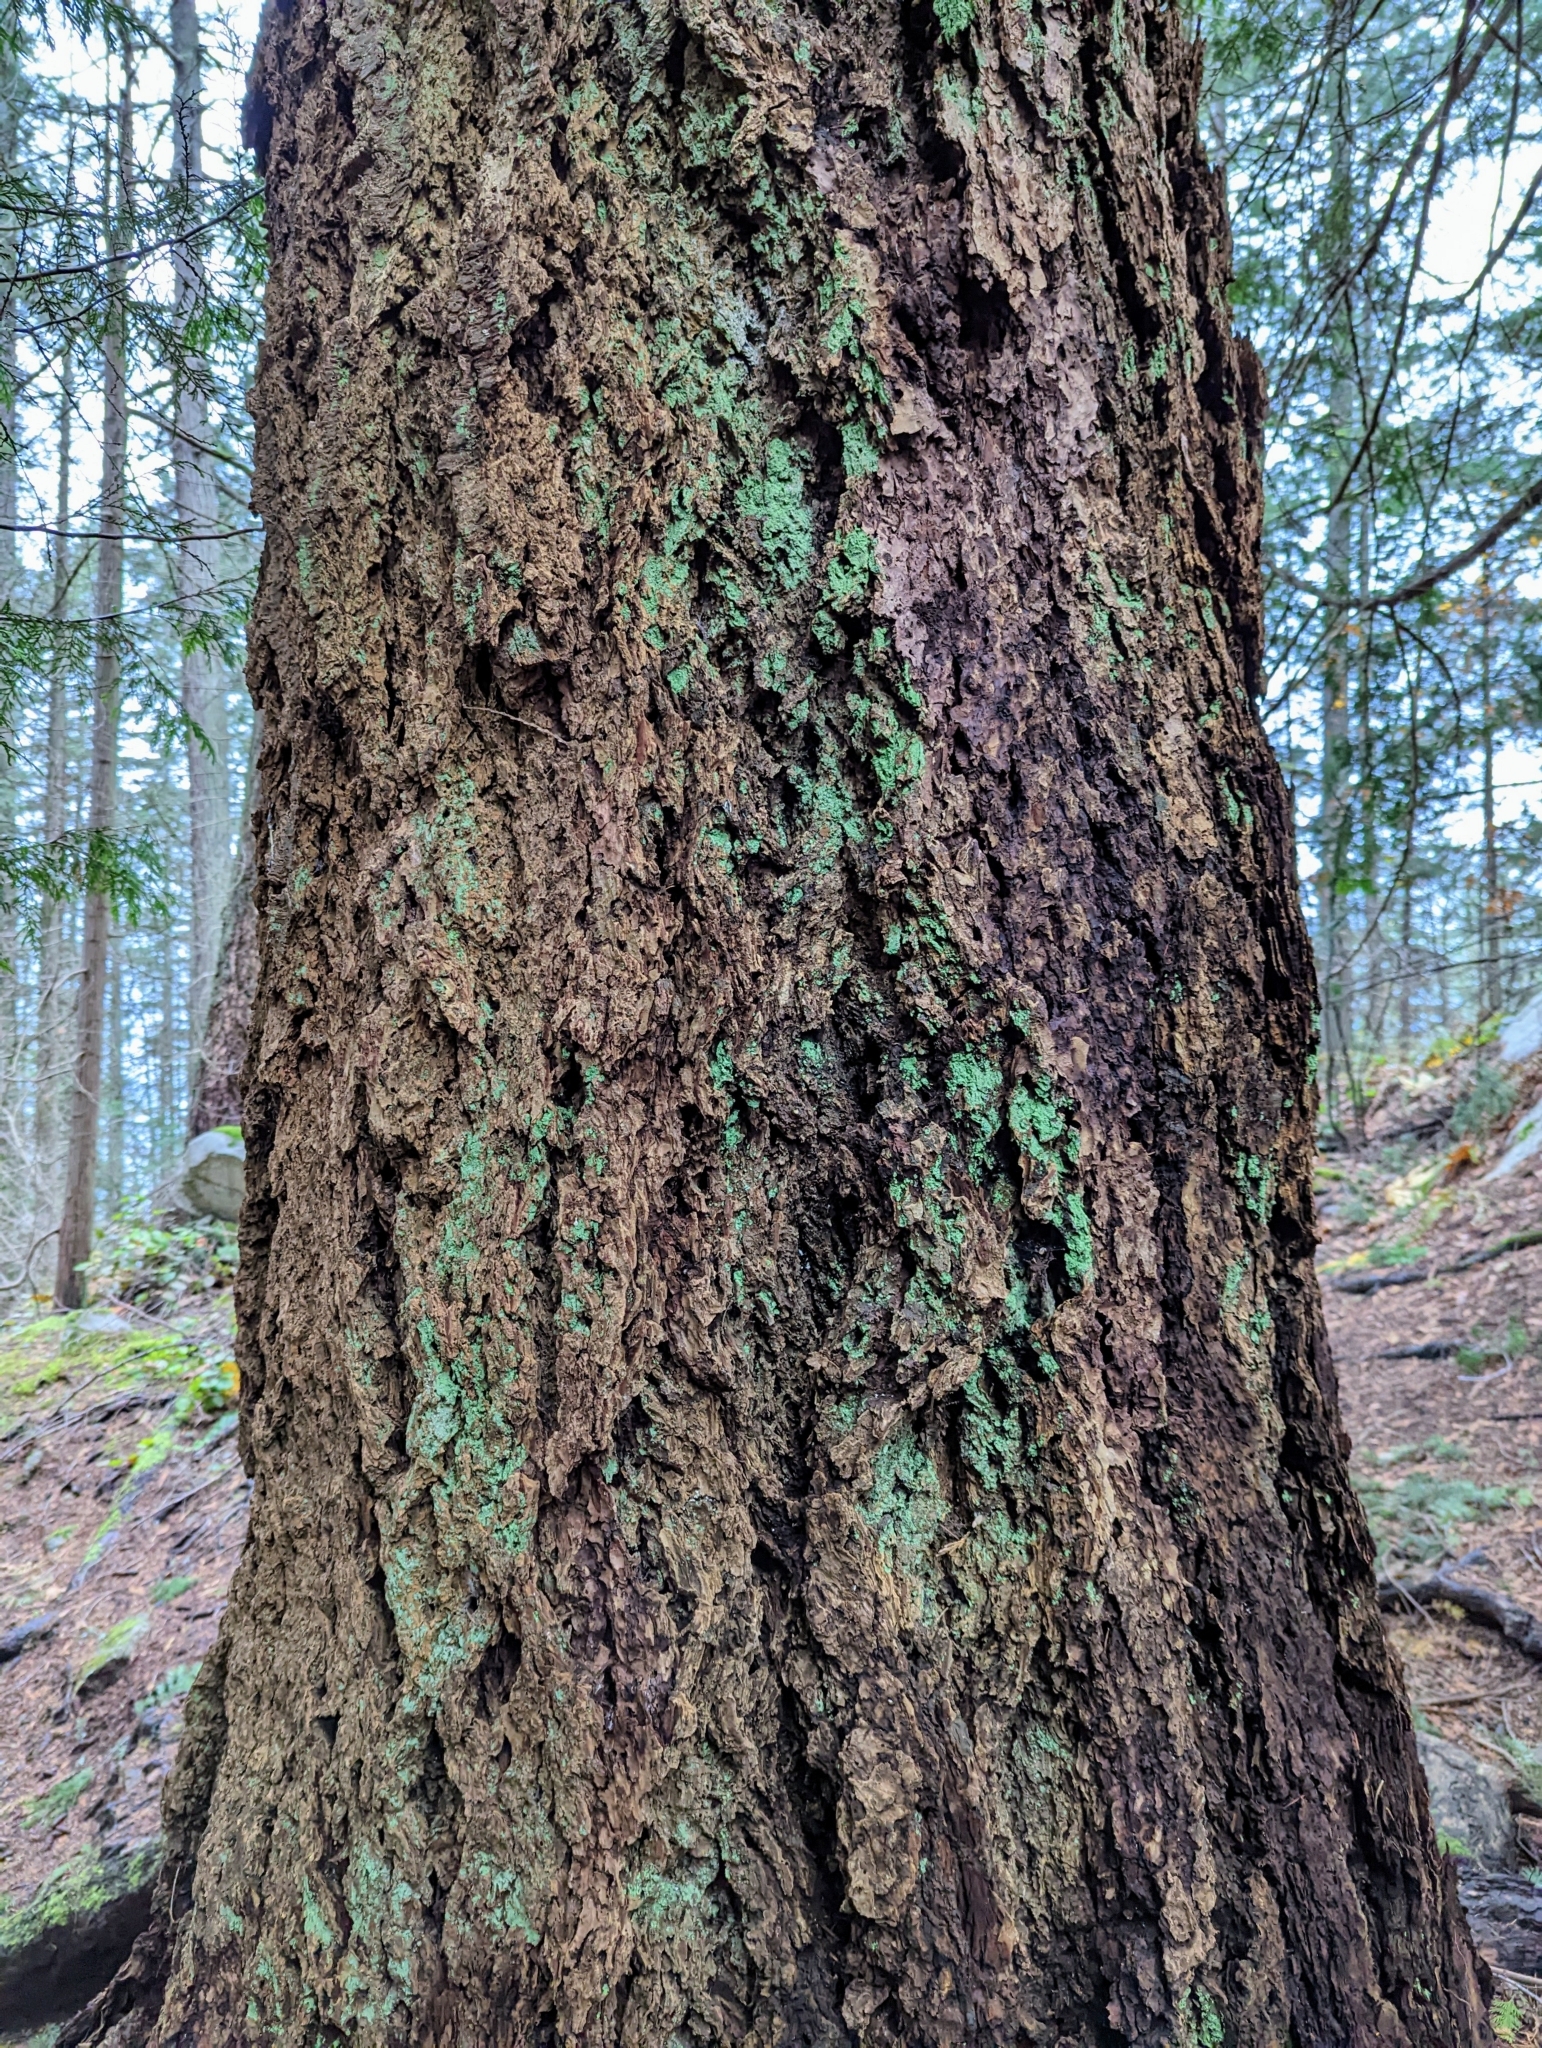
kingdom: Plantae
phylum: Tracheophyta
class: Pinopsida
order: Pinales
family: Pinaceae
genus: Pseudotsuga
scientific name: Pseudotsuga menziesii
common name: Douglas fir
